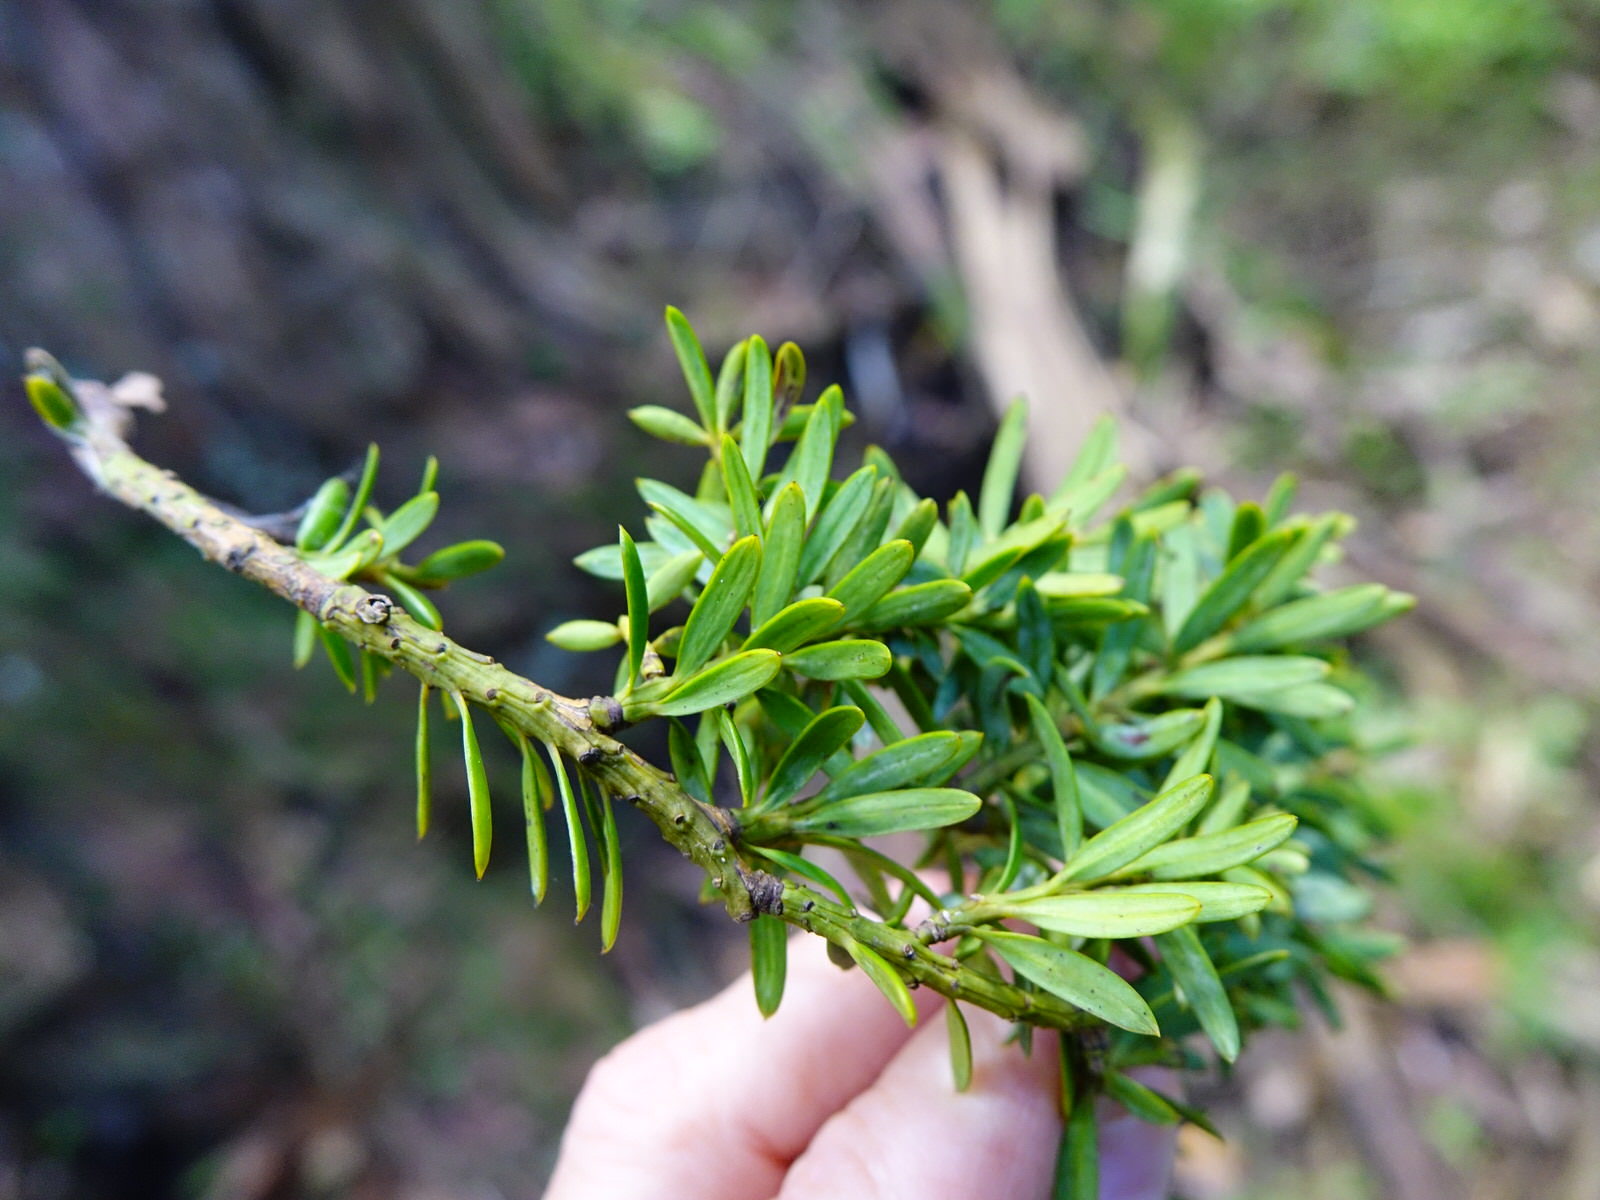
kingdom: Plantae
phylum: Tracheophyta
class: Pinopsida
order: Pinales
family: Podocarpaceae
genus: Podocarpus
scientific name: Podocarpus totara
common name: Totara
